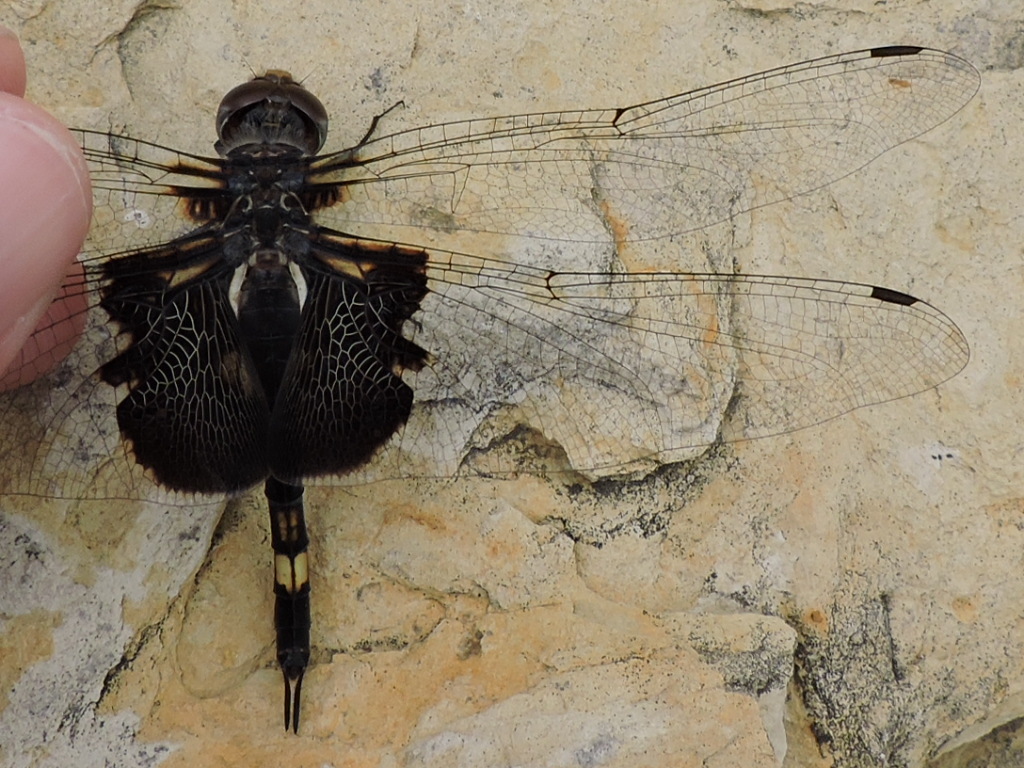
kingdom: Animalia
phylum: Arthropoda
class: Insecta
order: Odonata
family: Libellulidae
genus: Tramea
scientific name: Tramea lacerata
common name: Black saddlebags
